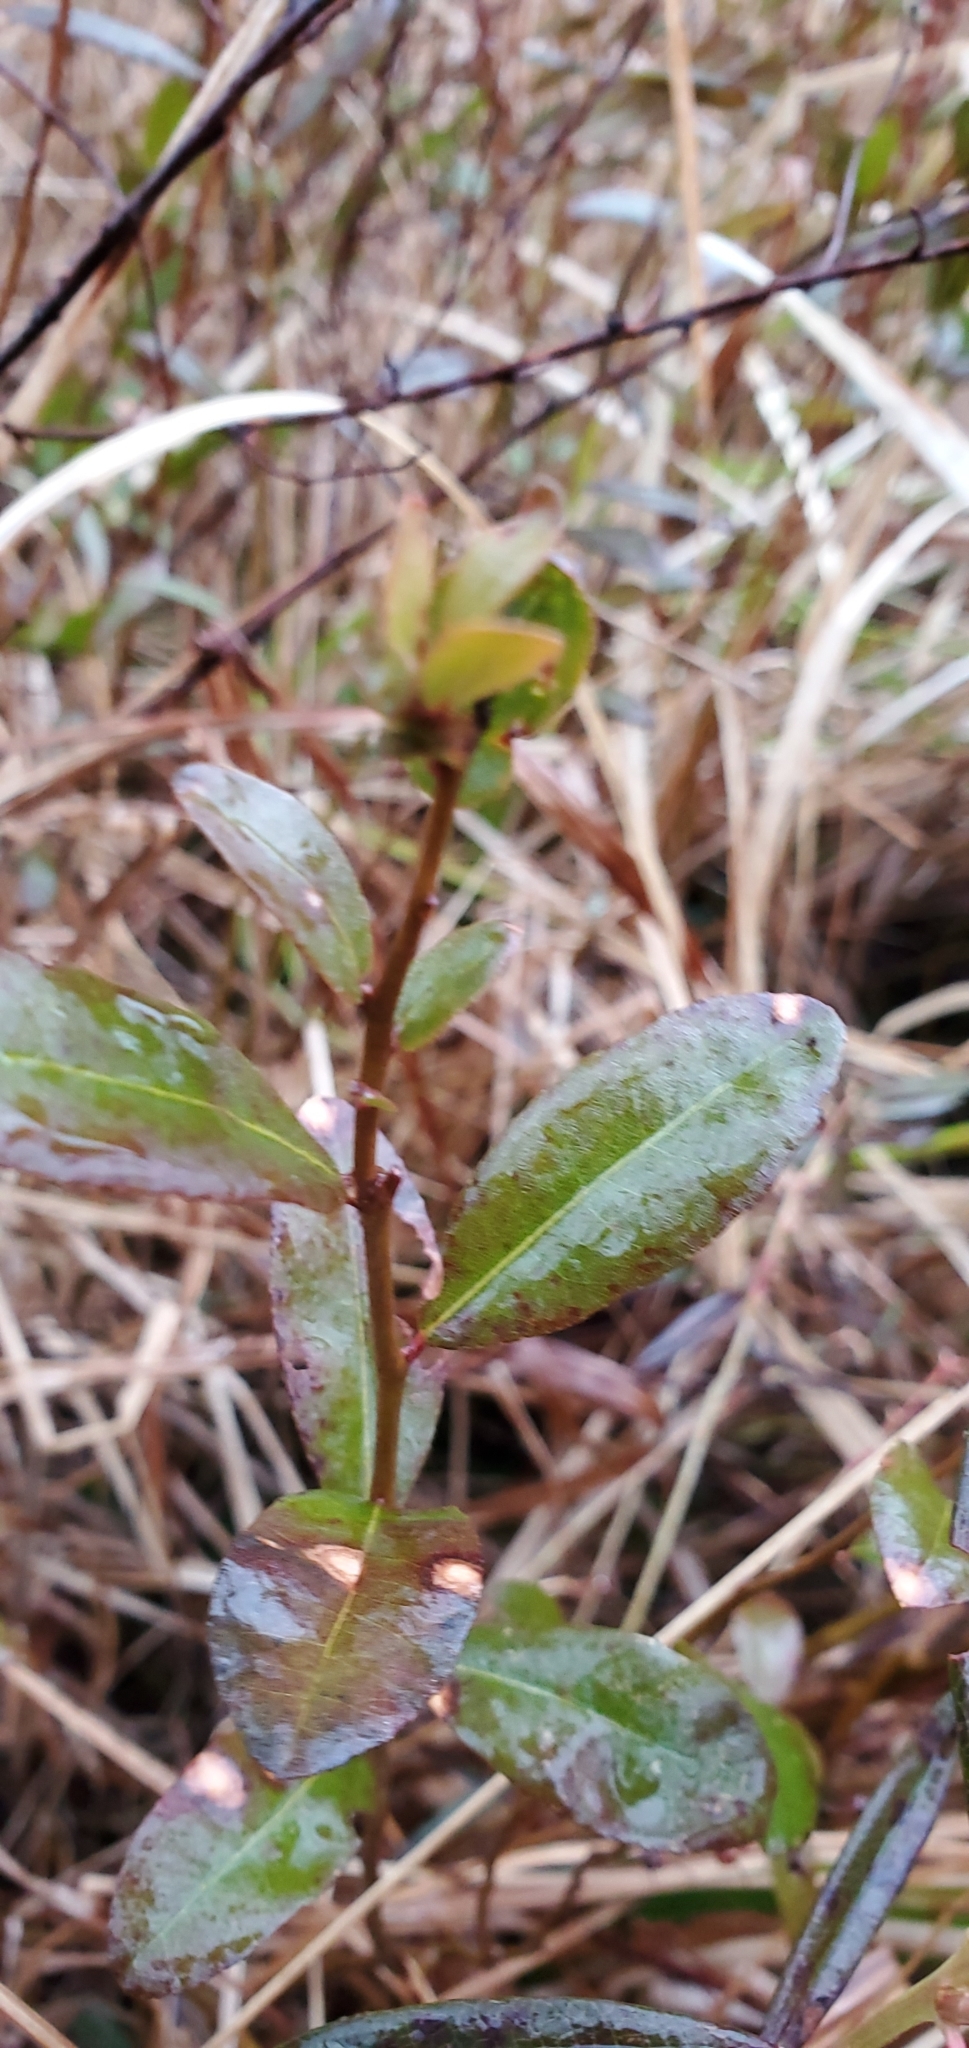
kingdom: Plantae
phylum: Tracheophyta
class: Magnoliopsida
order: Ericales
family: Ericaceae
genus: Chamaedaphne
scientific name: Chamaedaphne calyculata
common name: Leatherleaf
